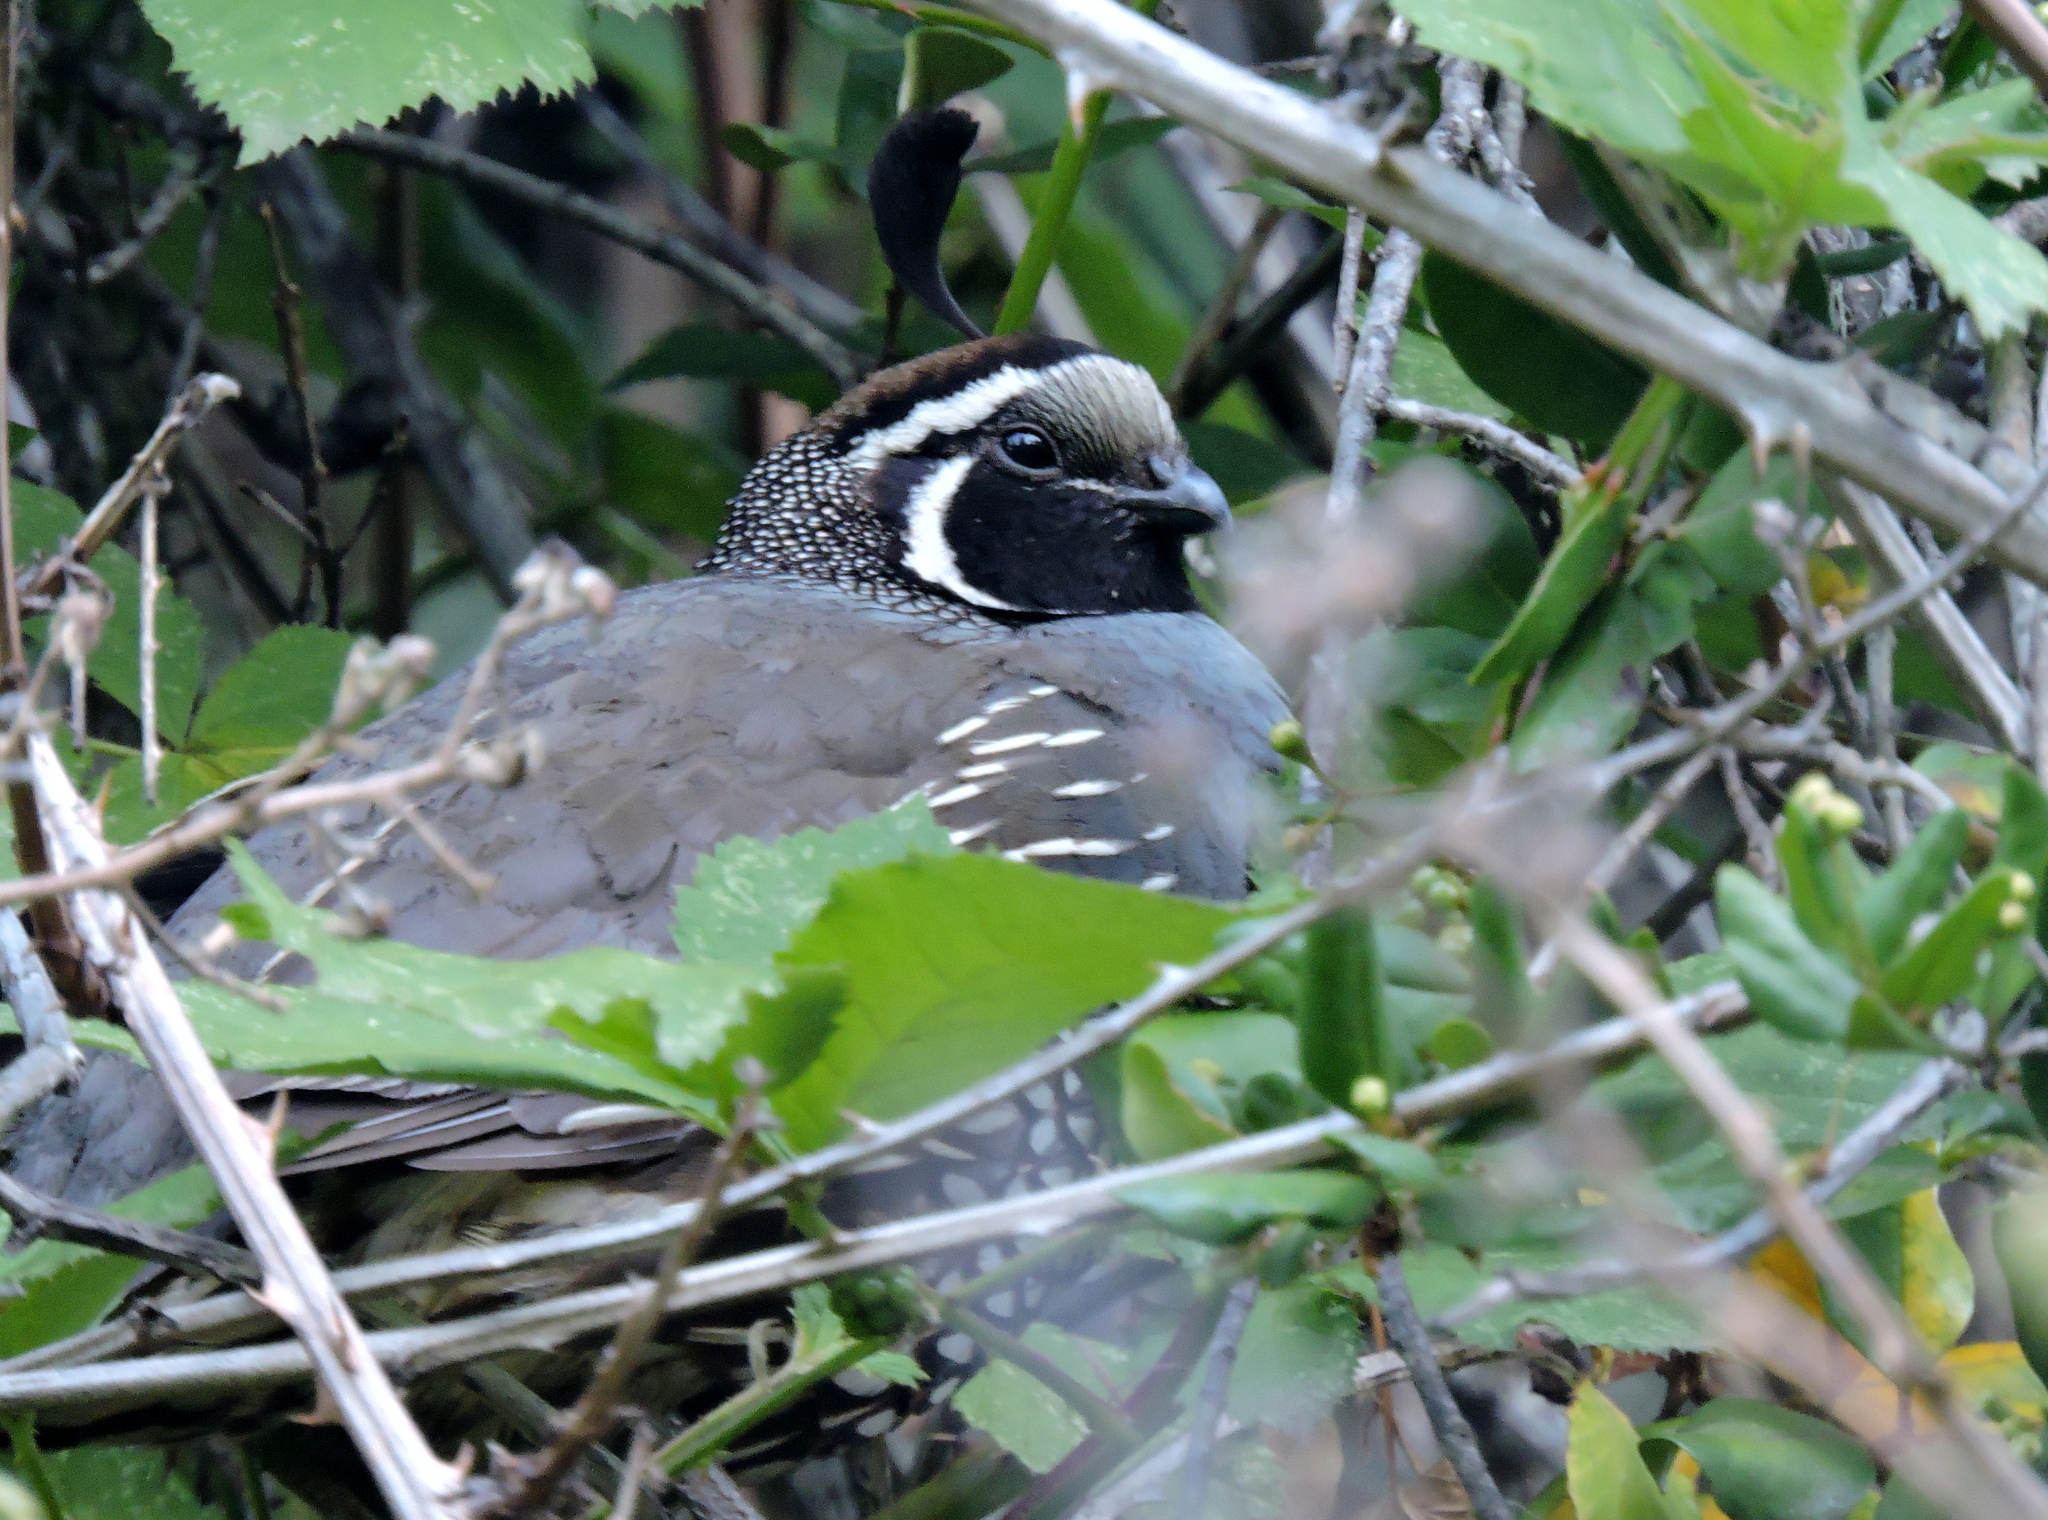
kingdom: Animalia
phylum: Chordata
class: Aves
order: Galliformes
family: Odontophoridae
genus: Callipepla
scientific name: Callipepla californica
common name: California quail
